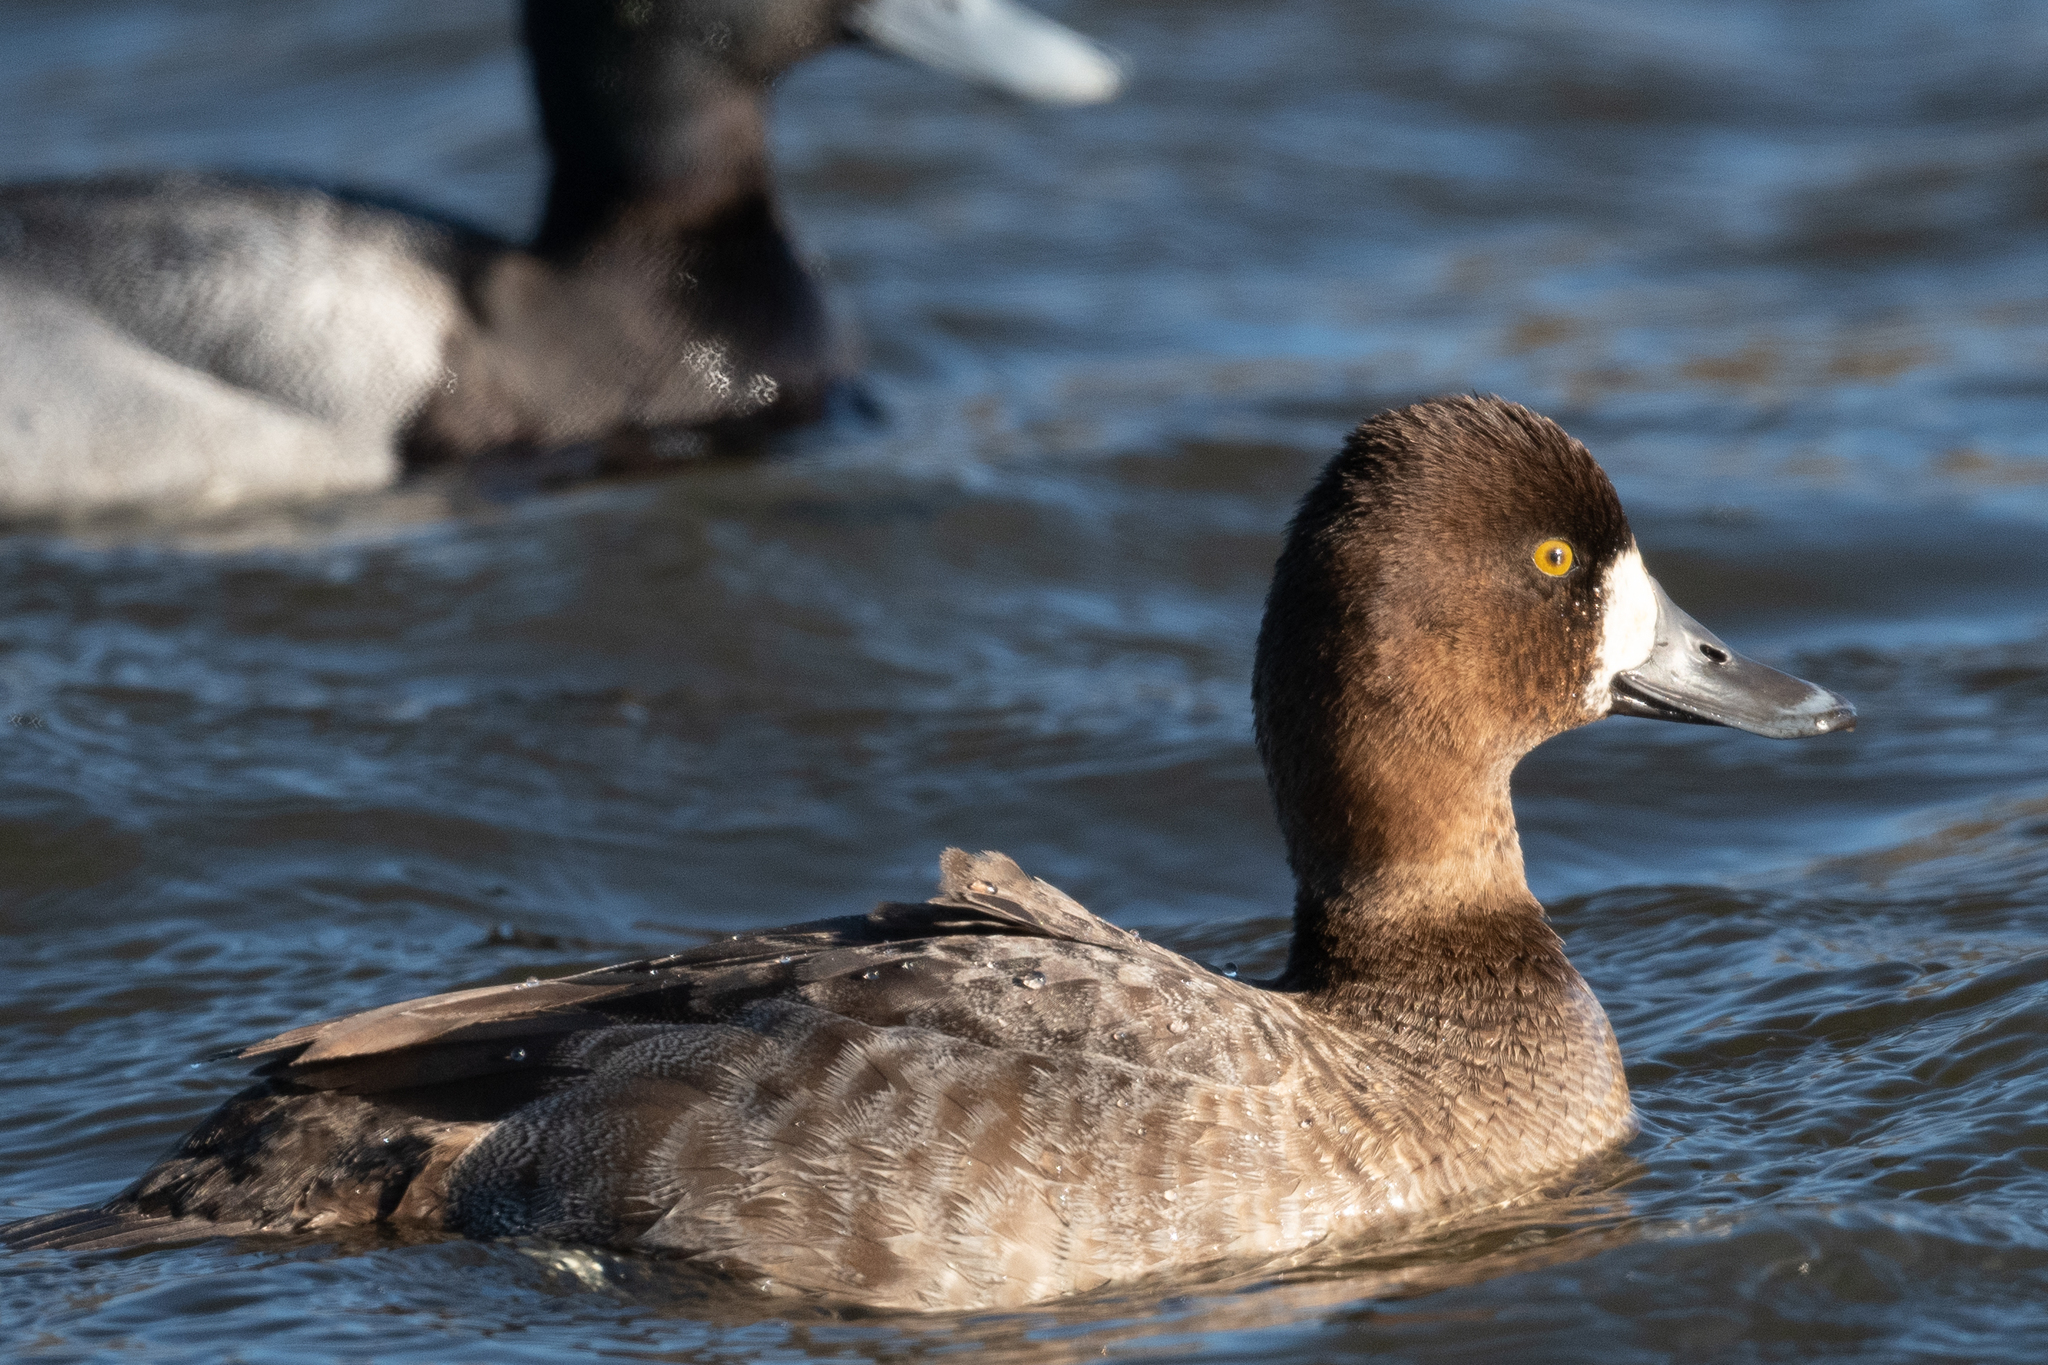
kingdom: Animalia
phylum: Chordata
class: Aves
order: Anseriformes
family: Anatidae
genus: Aythya
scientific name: Aythya affinis
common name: Lesser scaup
